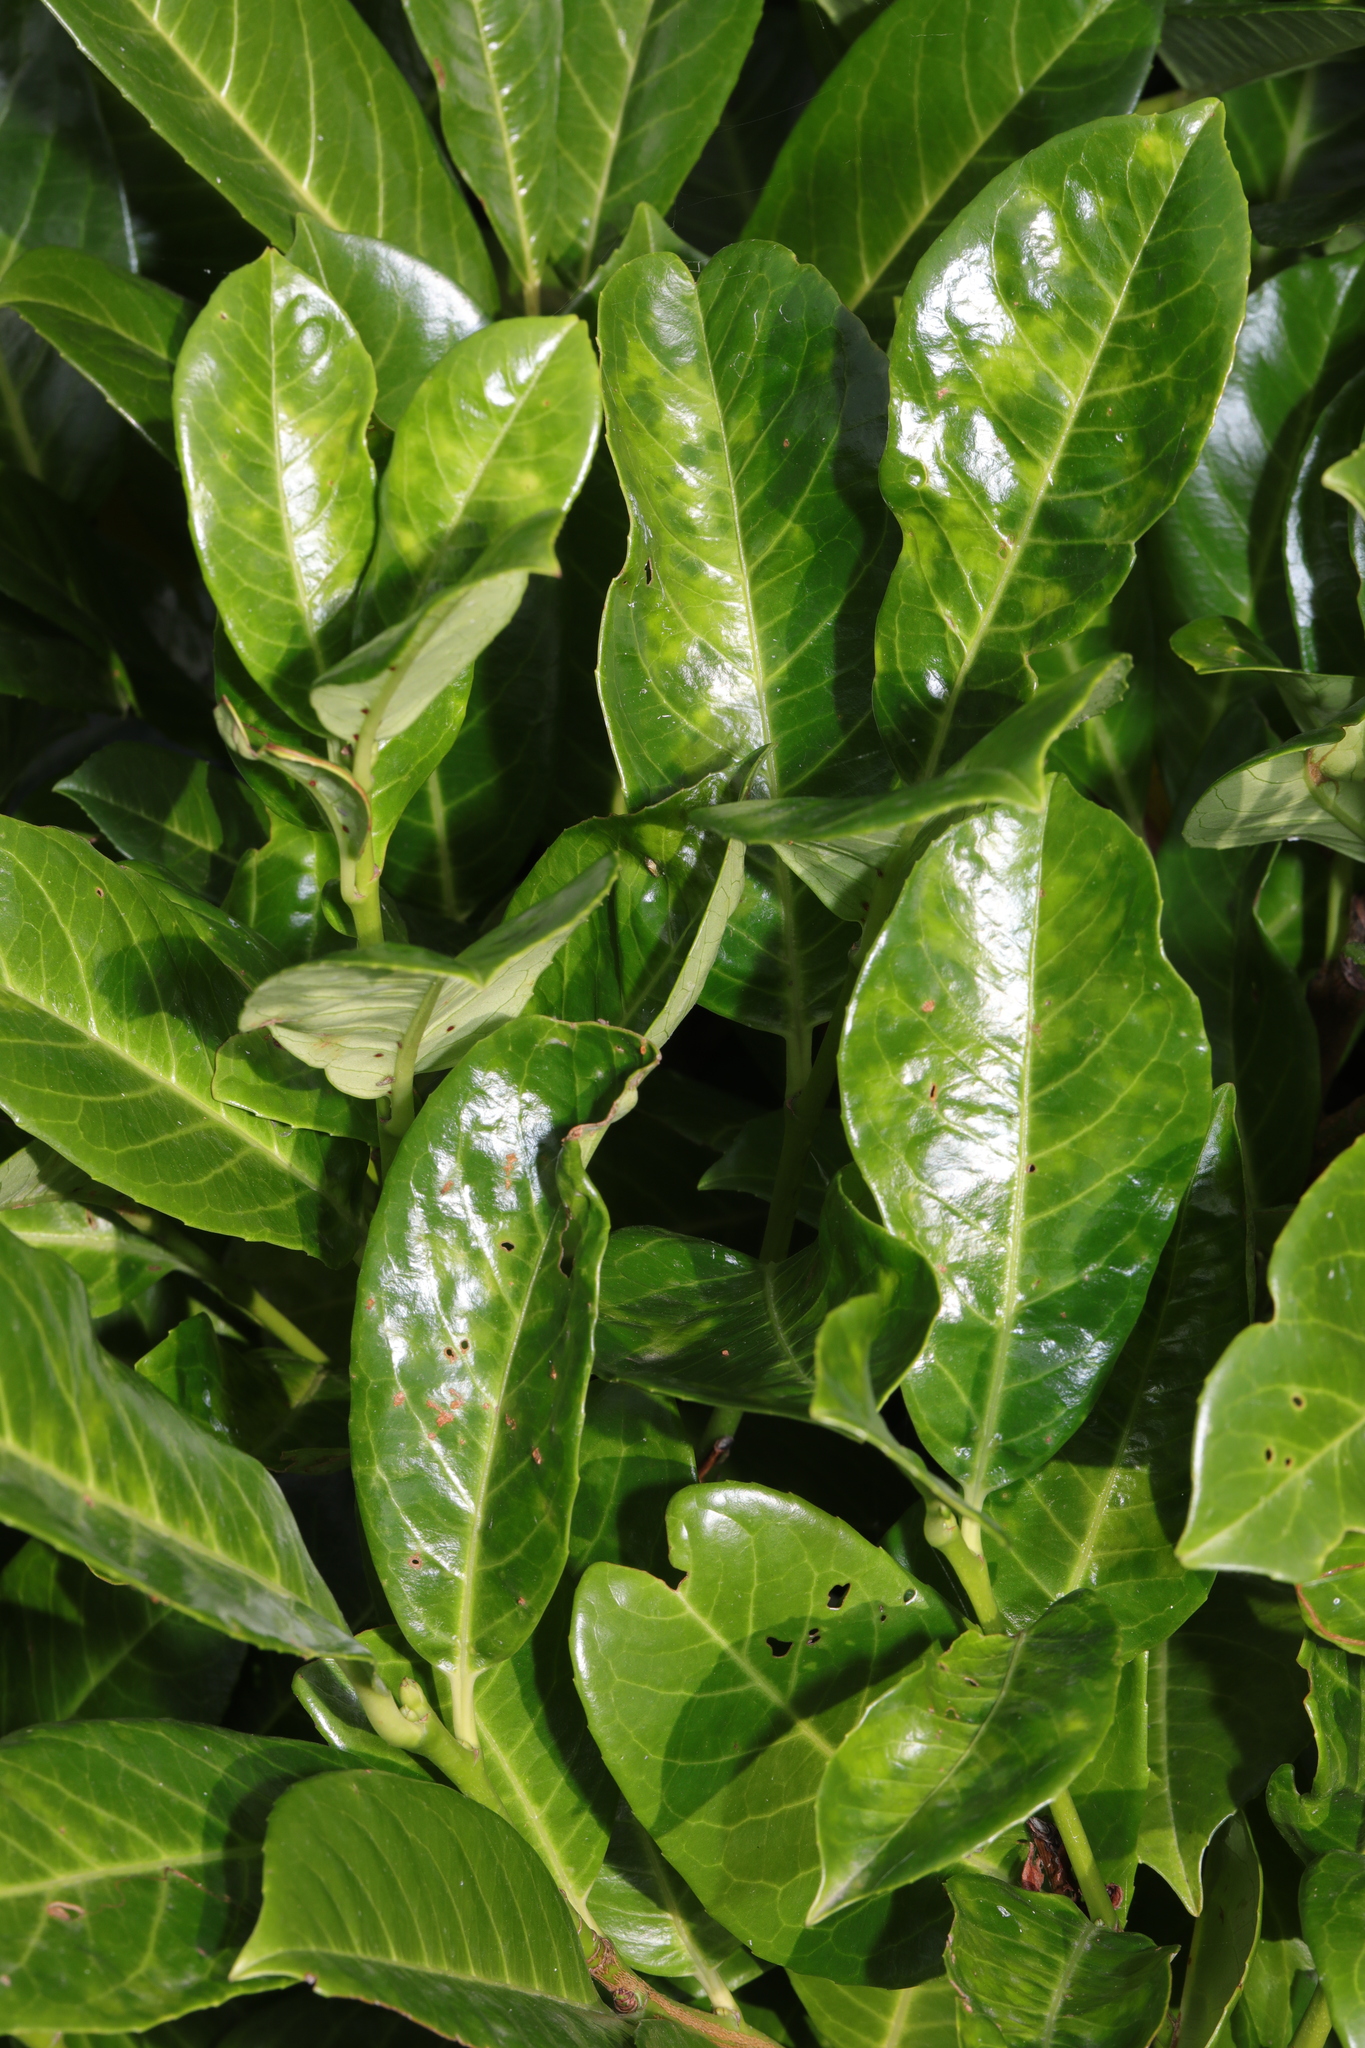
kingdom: Plantae
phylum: Tracheophyta
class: Magnoliopsida
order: Rosales
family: Rosaceae
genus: Prunus
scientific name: Prunus laurocerasus
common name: Cherry laurel
